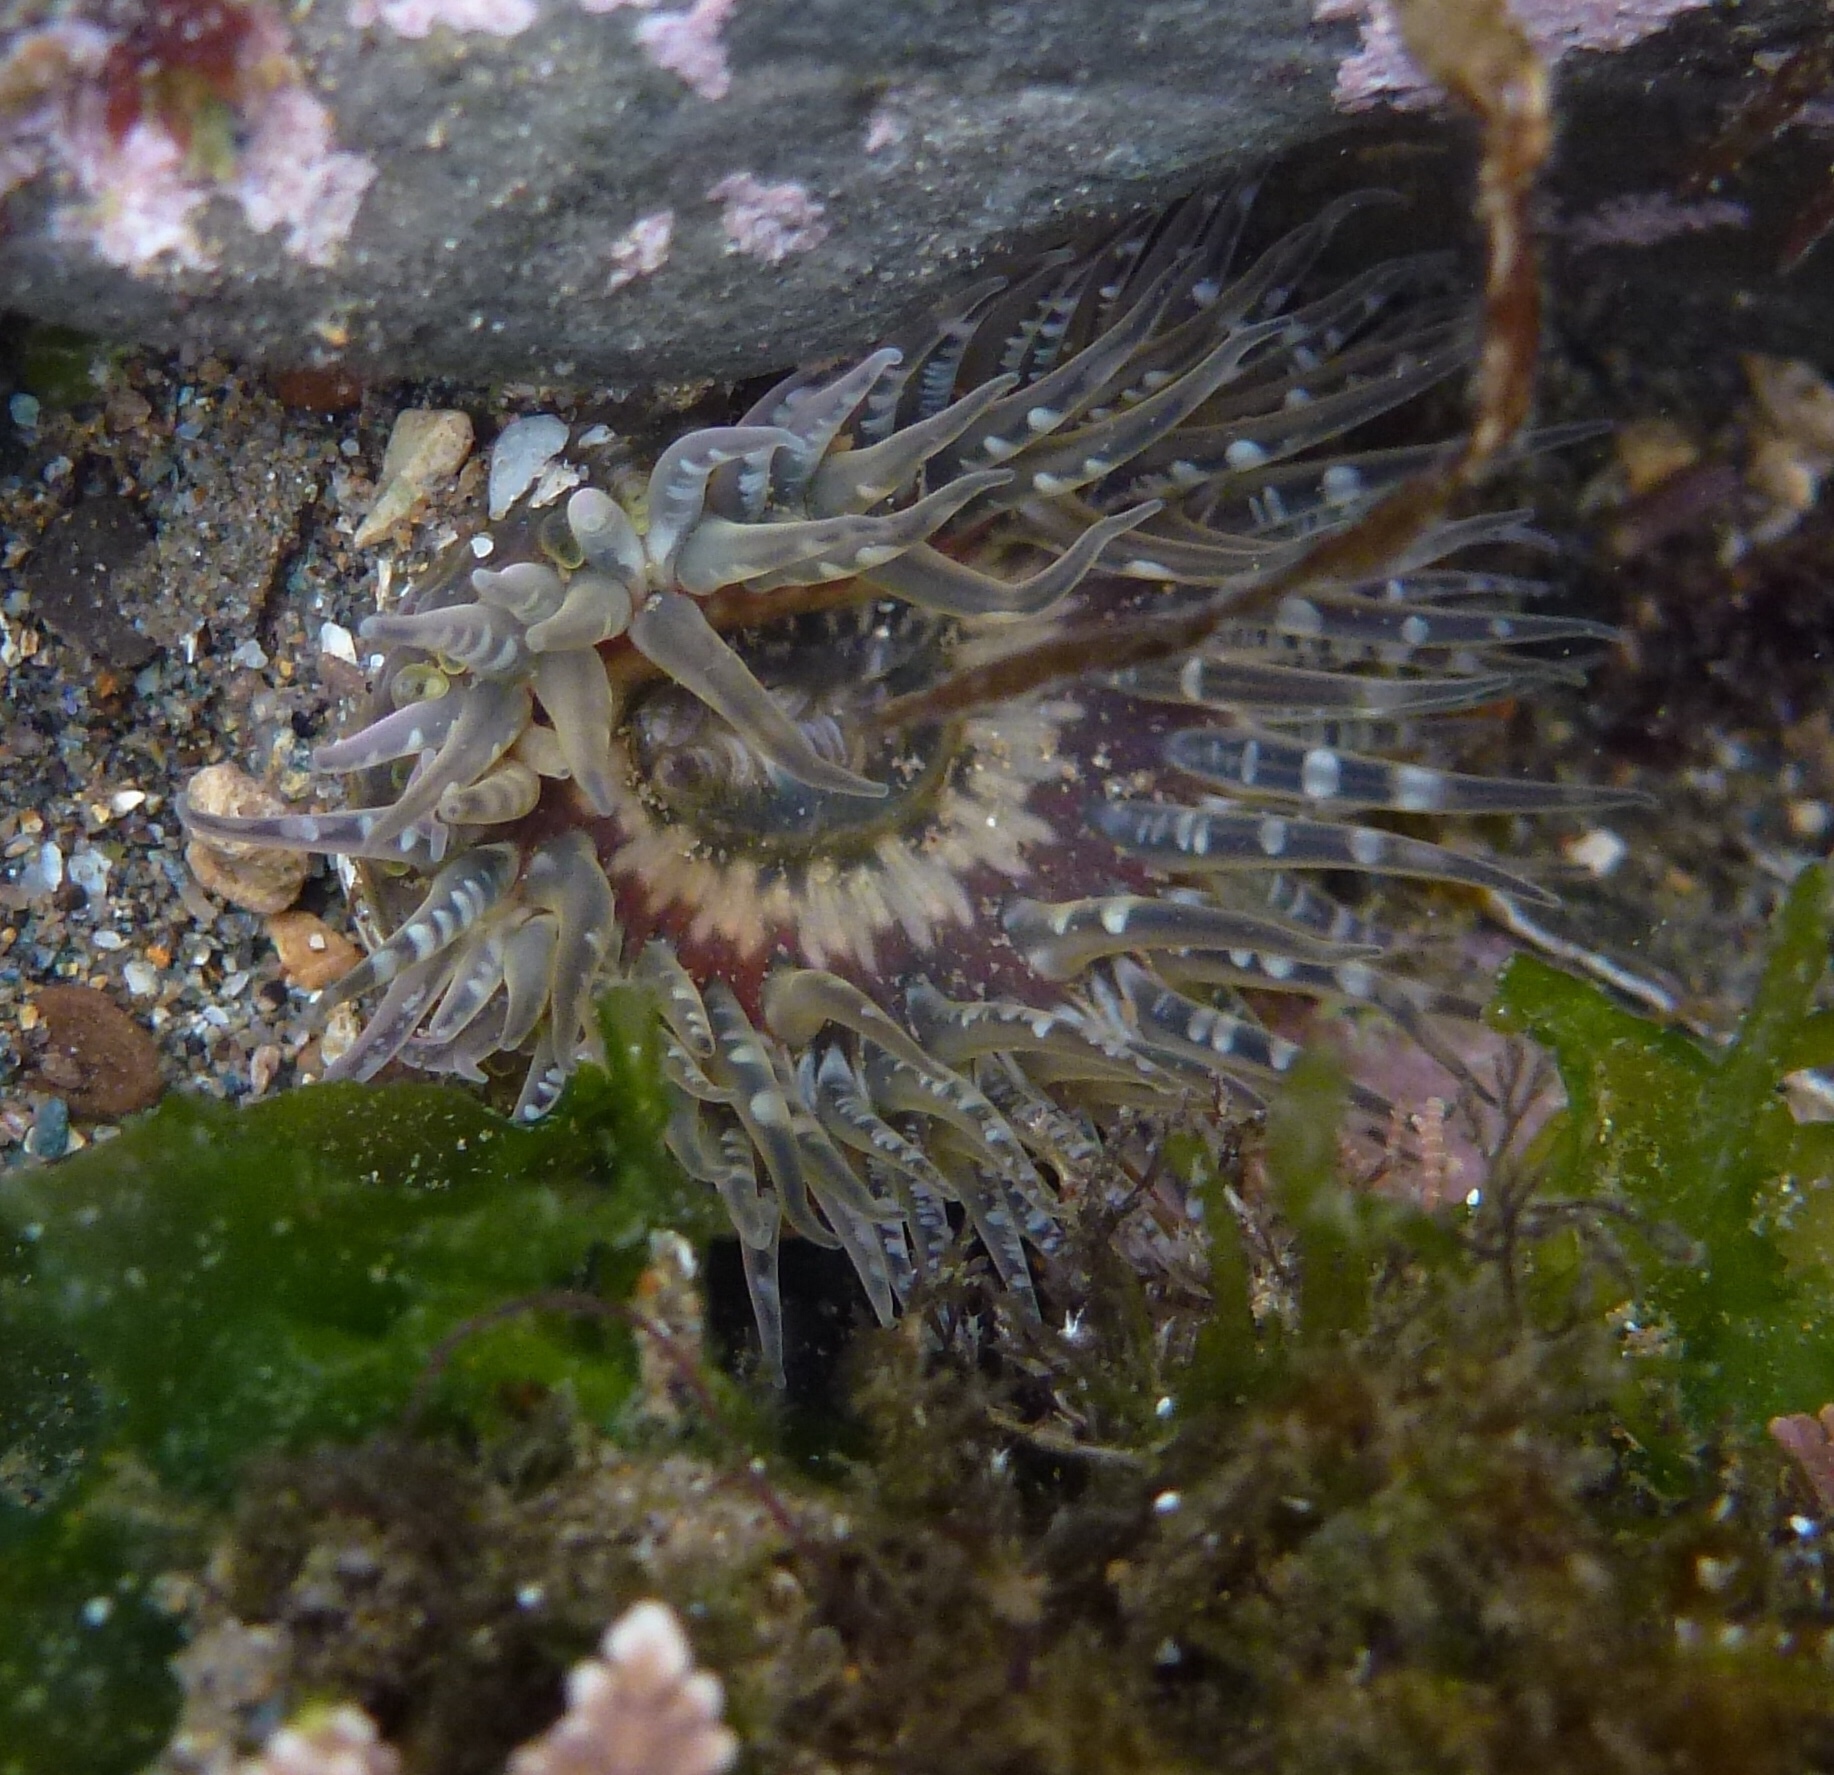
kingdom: Animalia
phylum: Cnidaria
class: Anthozoa
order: Actiniaria
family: Actiniidae
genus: Anthopleura
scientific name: Anthopleura artemisia
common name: Buried sea anemone
